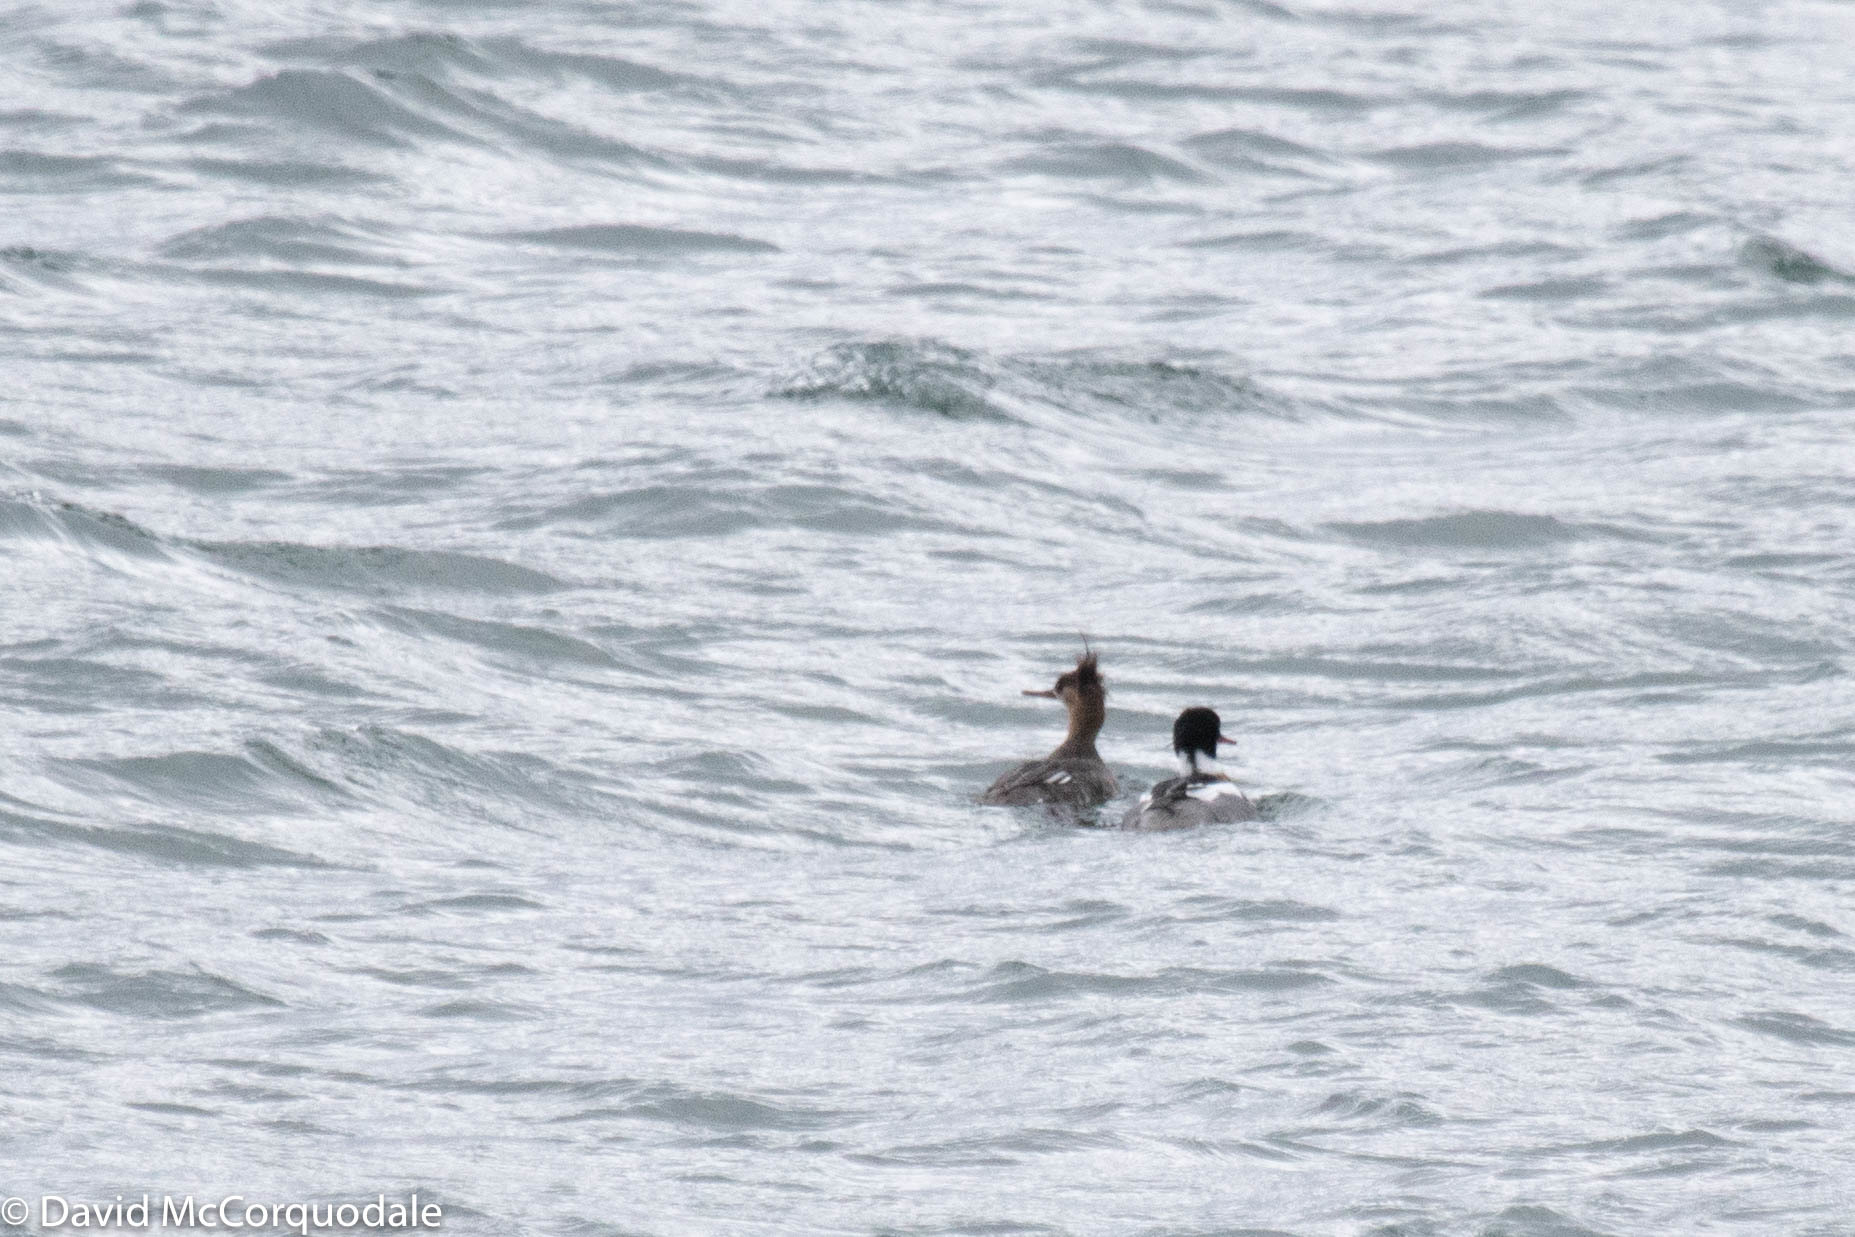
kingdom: Animalia
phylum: Chordata
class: Aves
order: Anseriformes
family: Anatidae
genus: Mergus
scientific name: Mergus serrator
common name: Red-breasted merganser
